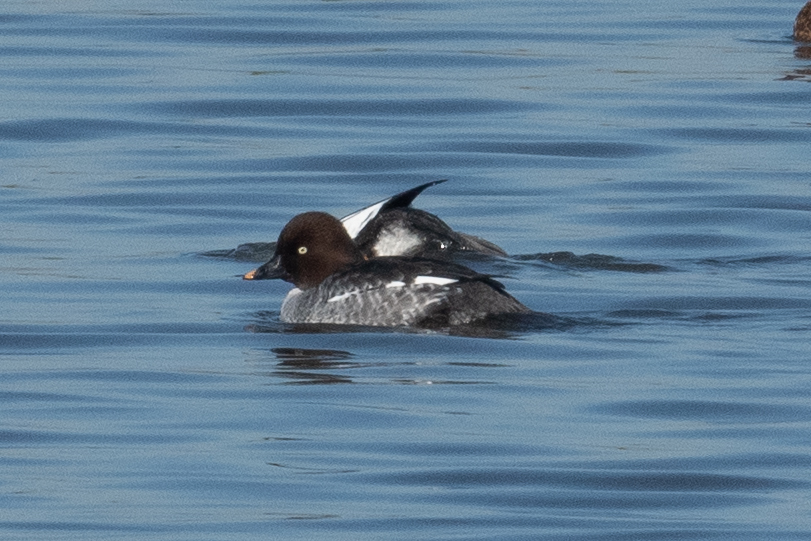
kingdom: Animalia
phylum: Chordata
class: Aves
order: Anseriformes
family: Anatidae
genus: Bucephala
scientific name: Bucephala clangula
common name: Common goldeneye
